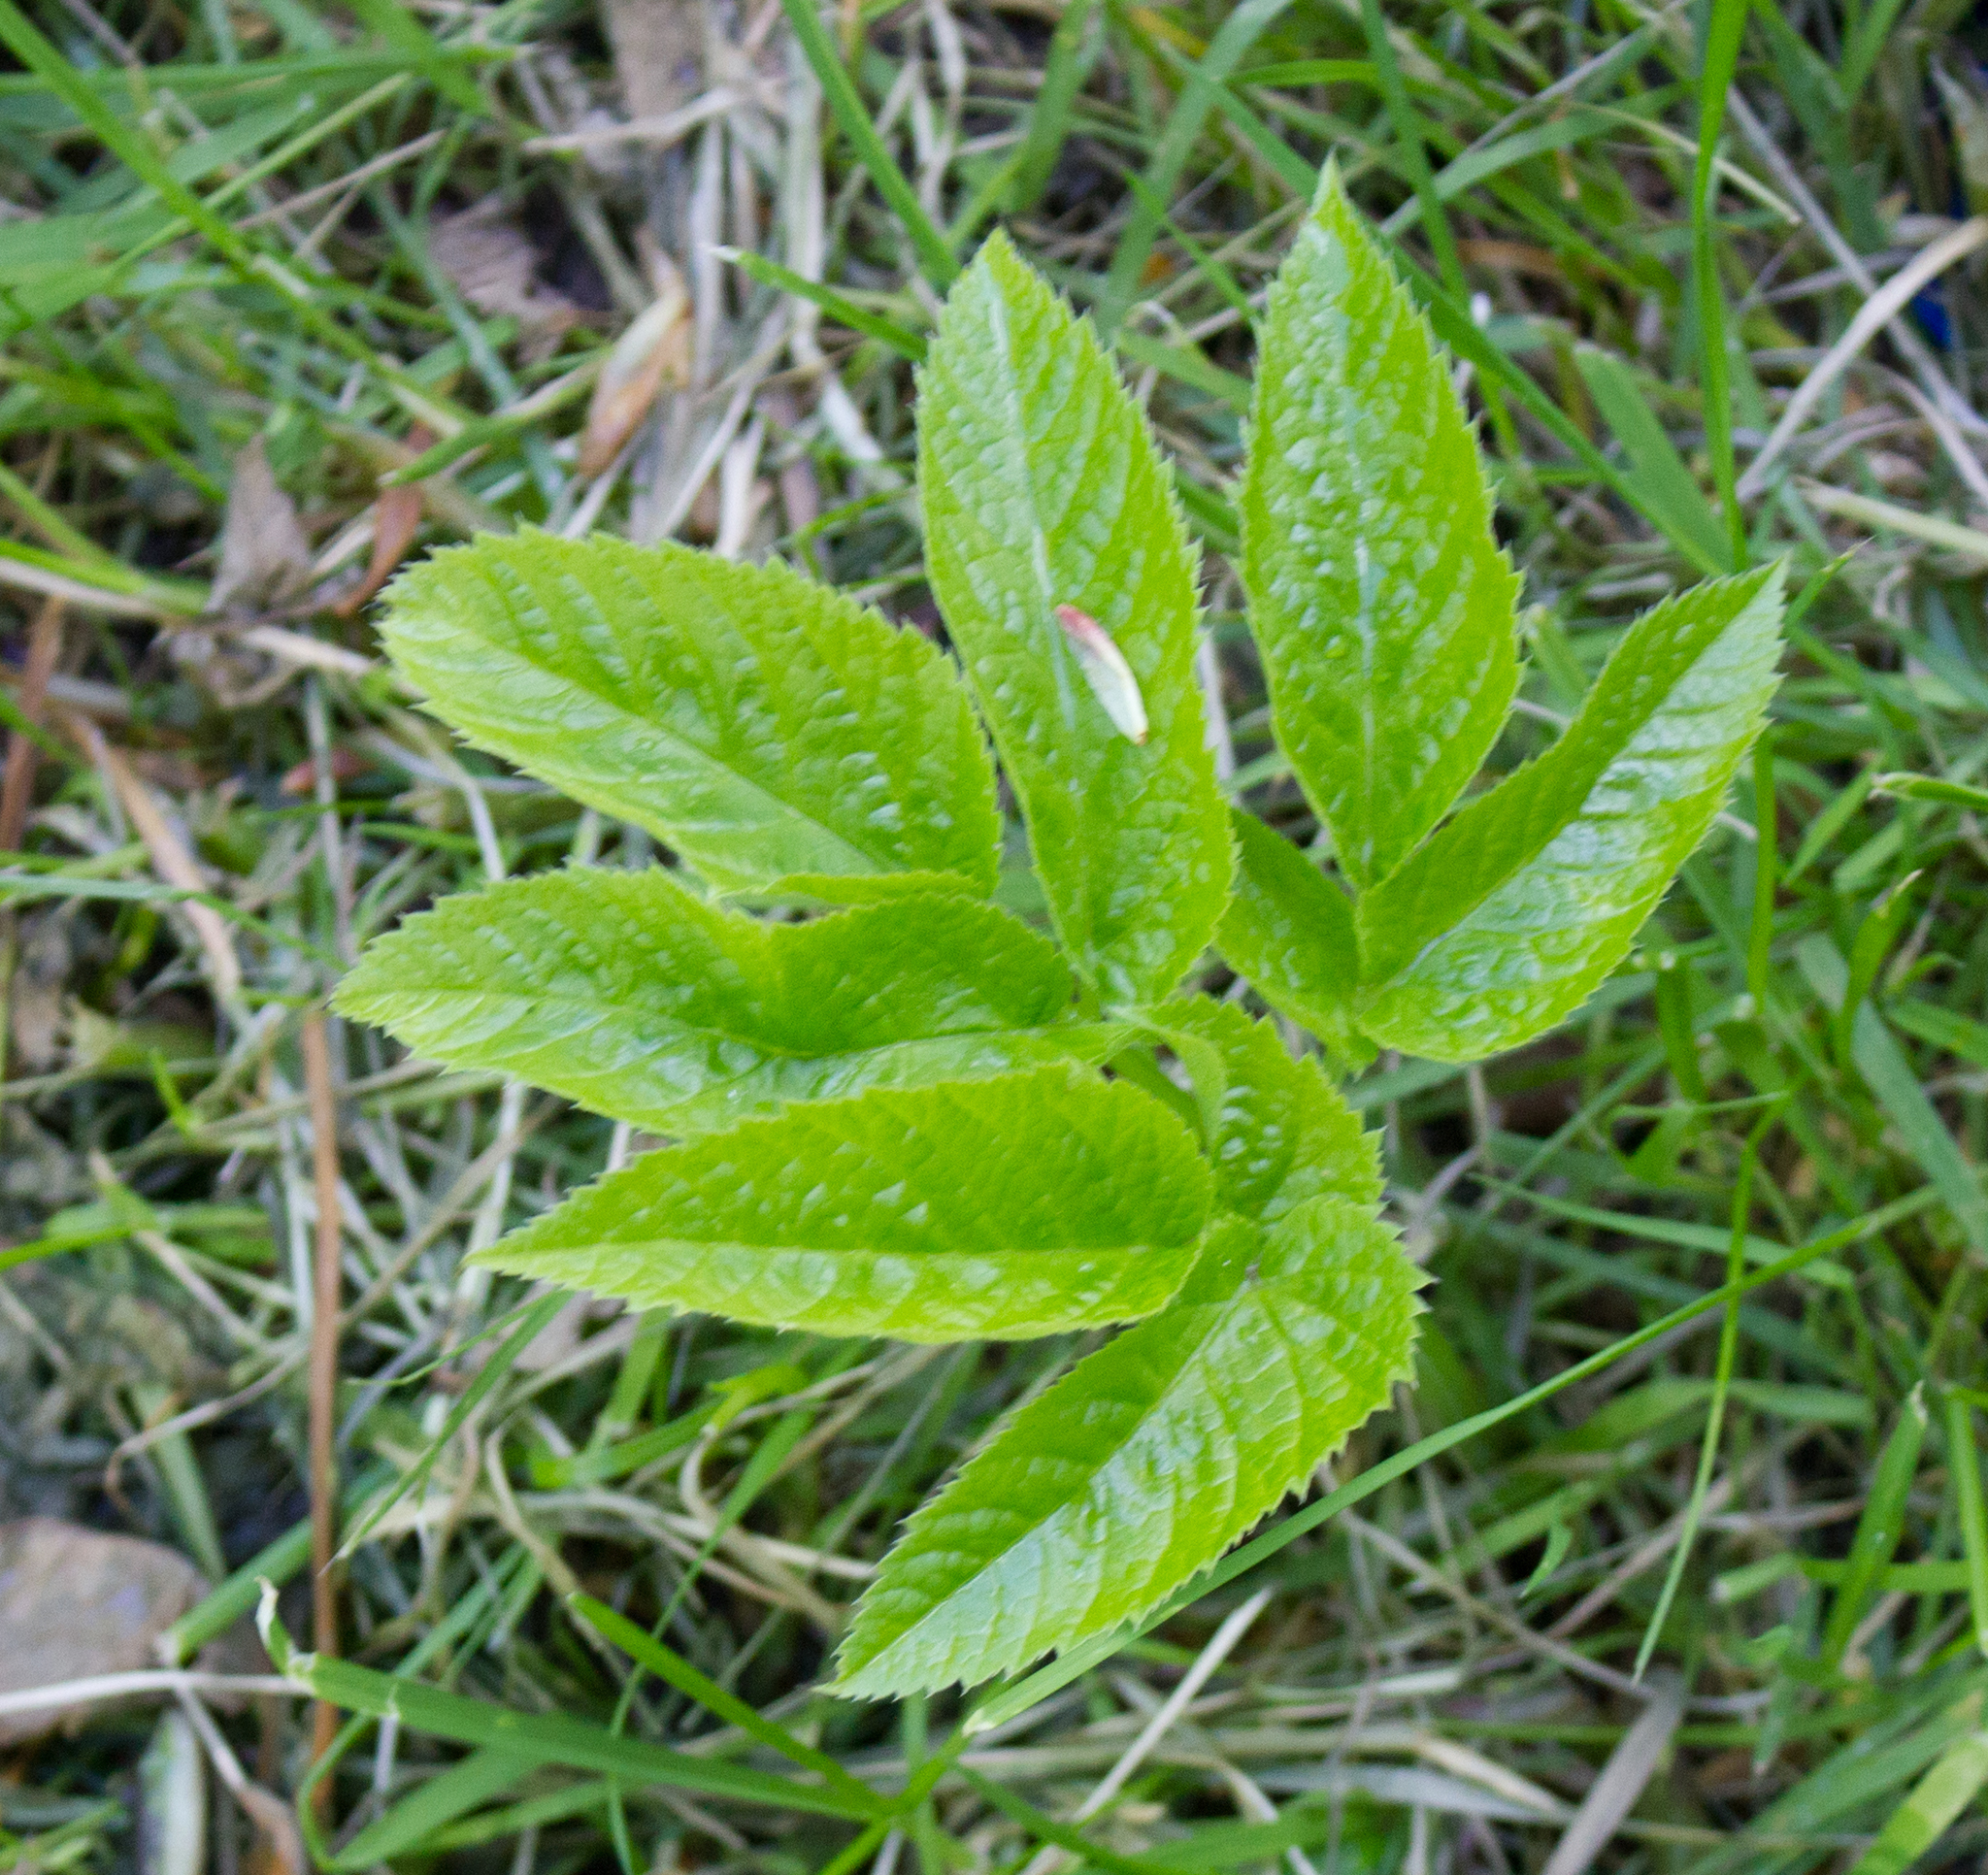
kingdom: Plantae
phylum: Tracheophyta
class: Magnoliopsida
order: Apiales
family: Apiaceae
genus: Aegopodium
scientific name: Aegopodium podagraria
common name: Ground-elder
